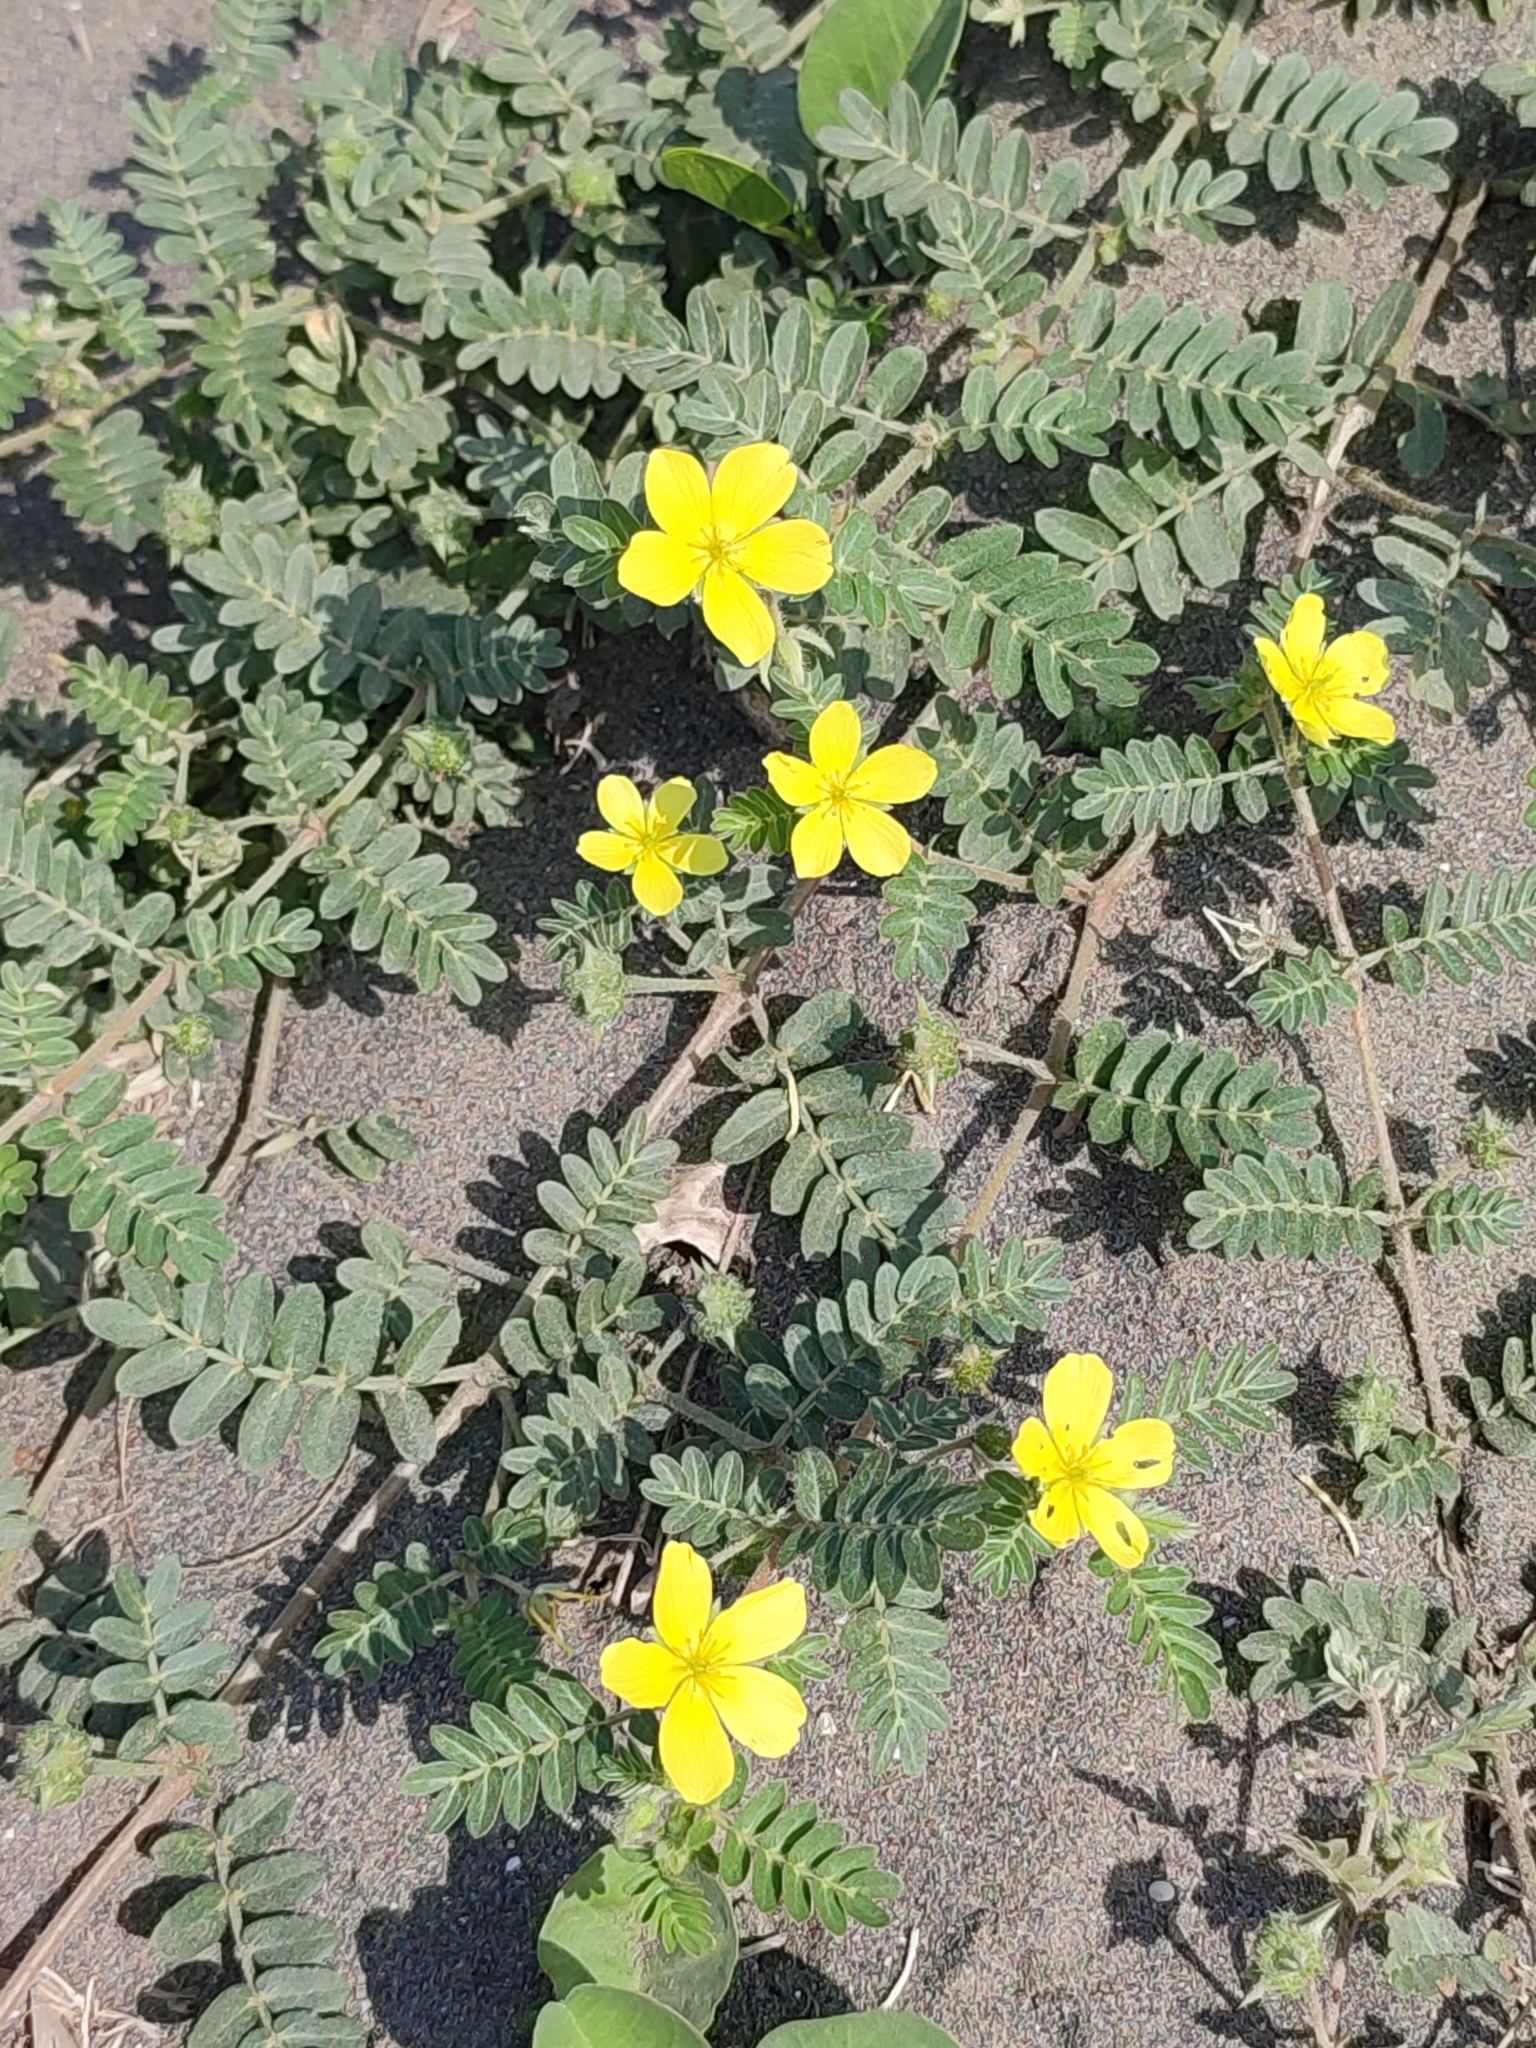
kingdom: Plantae
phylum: Tracheophyta
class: Magnoliopsida
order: Zygophyllales
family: Zygophyllaceae
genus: Tribulus
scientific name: Tribulus cistoides
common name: Jamaican feverplant
